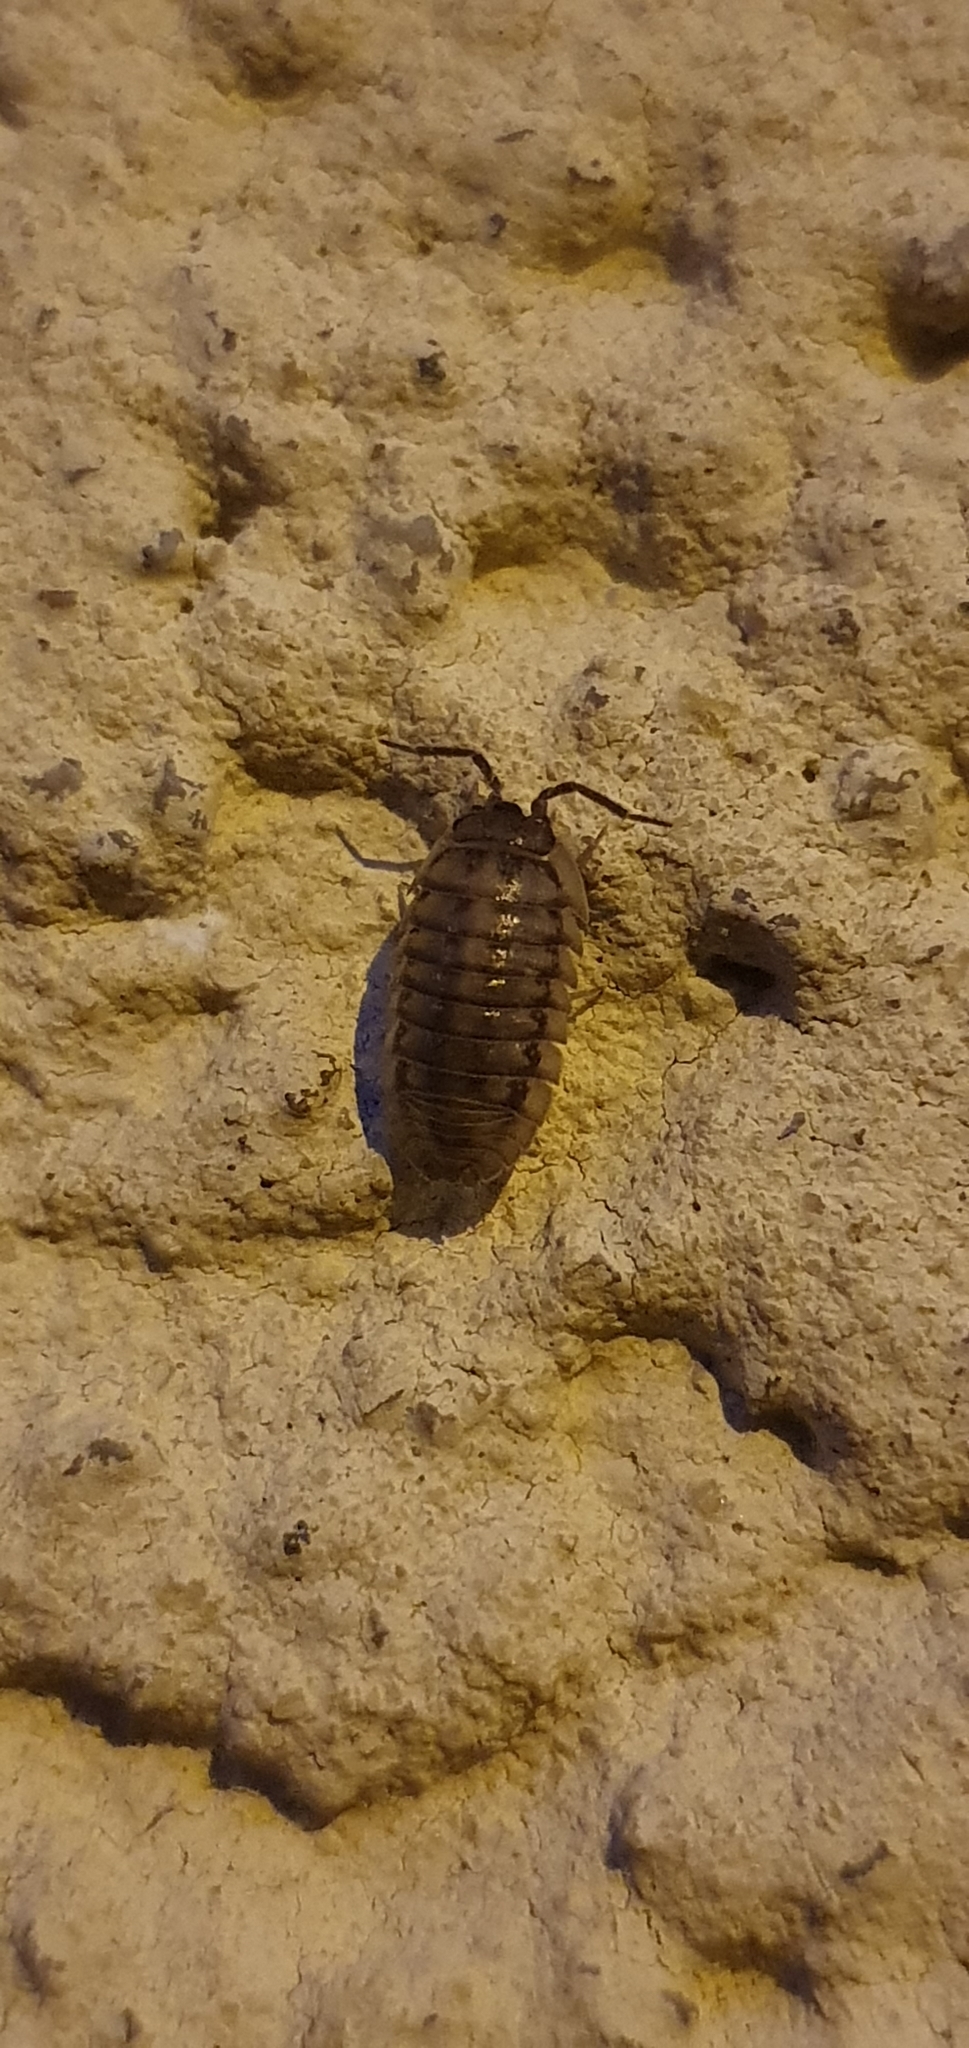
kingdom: Animalia
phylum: Arthropoda
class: Malacostraca
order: Isopoda
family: Armadillidiidae
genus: Armadillidium
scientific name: Armadillidium nasatum
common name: Isopod
